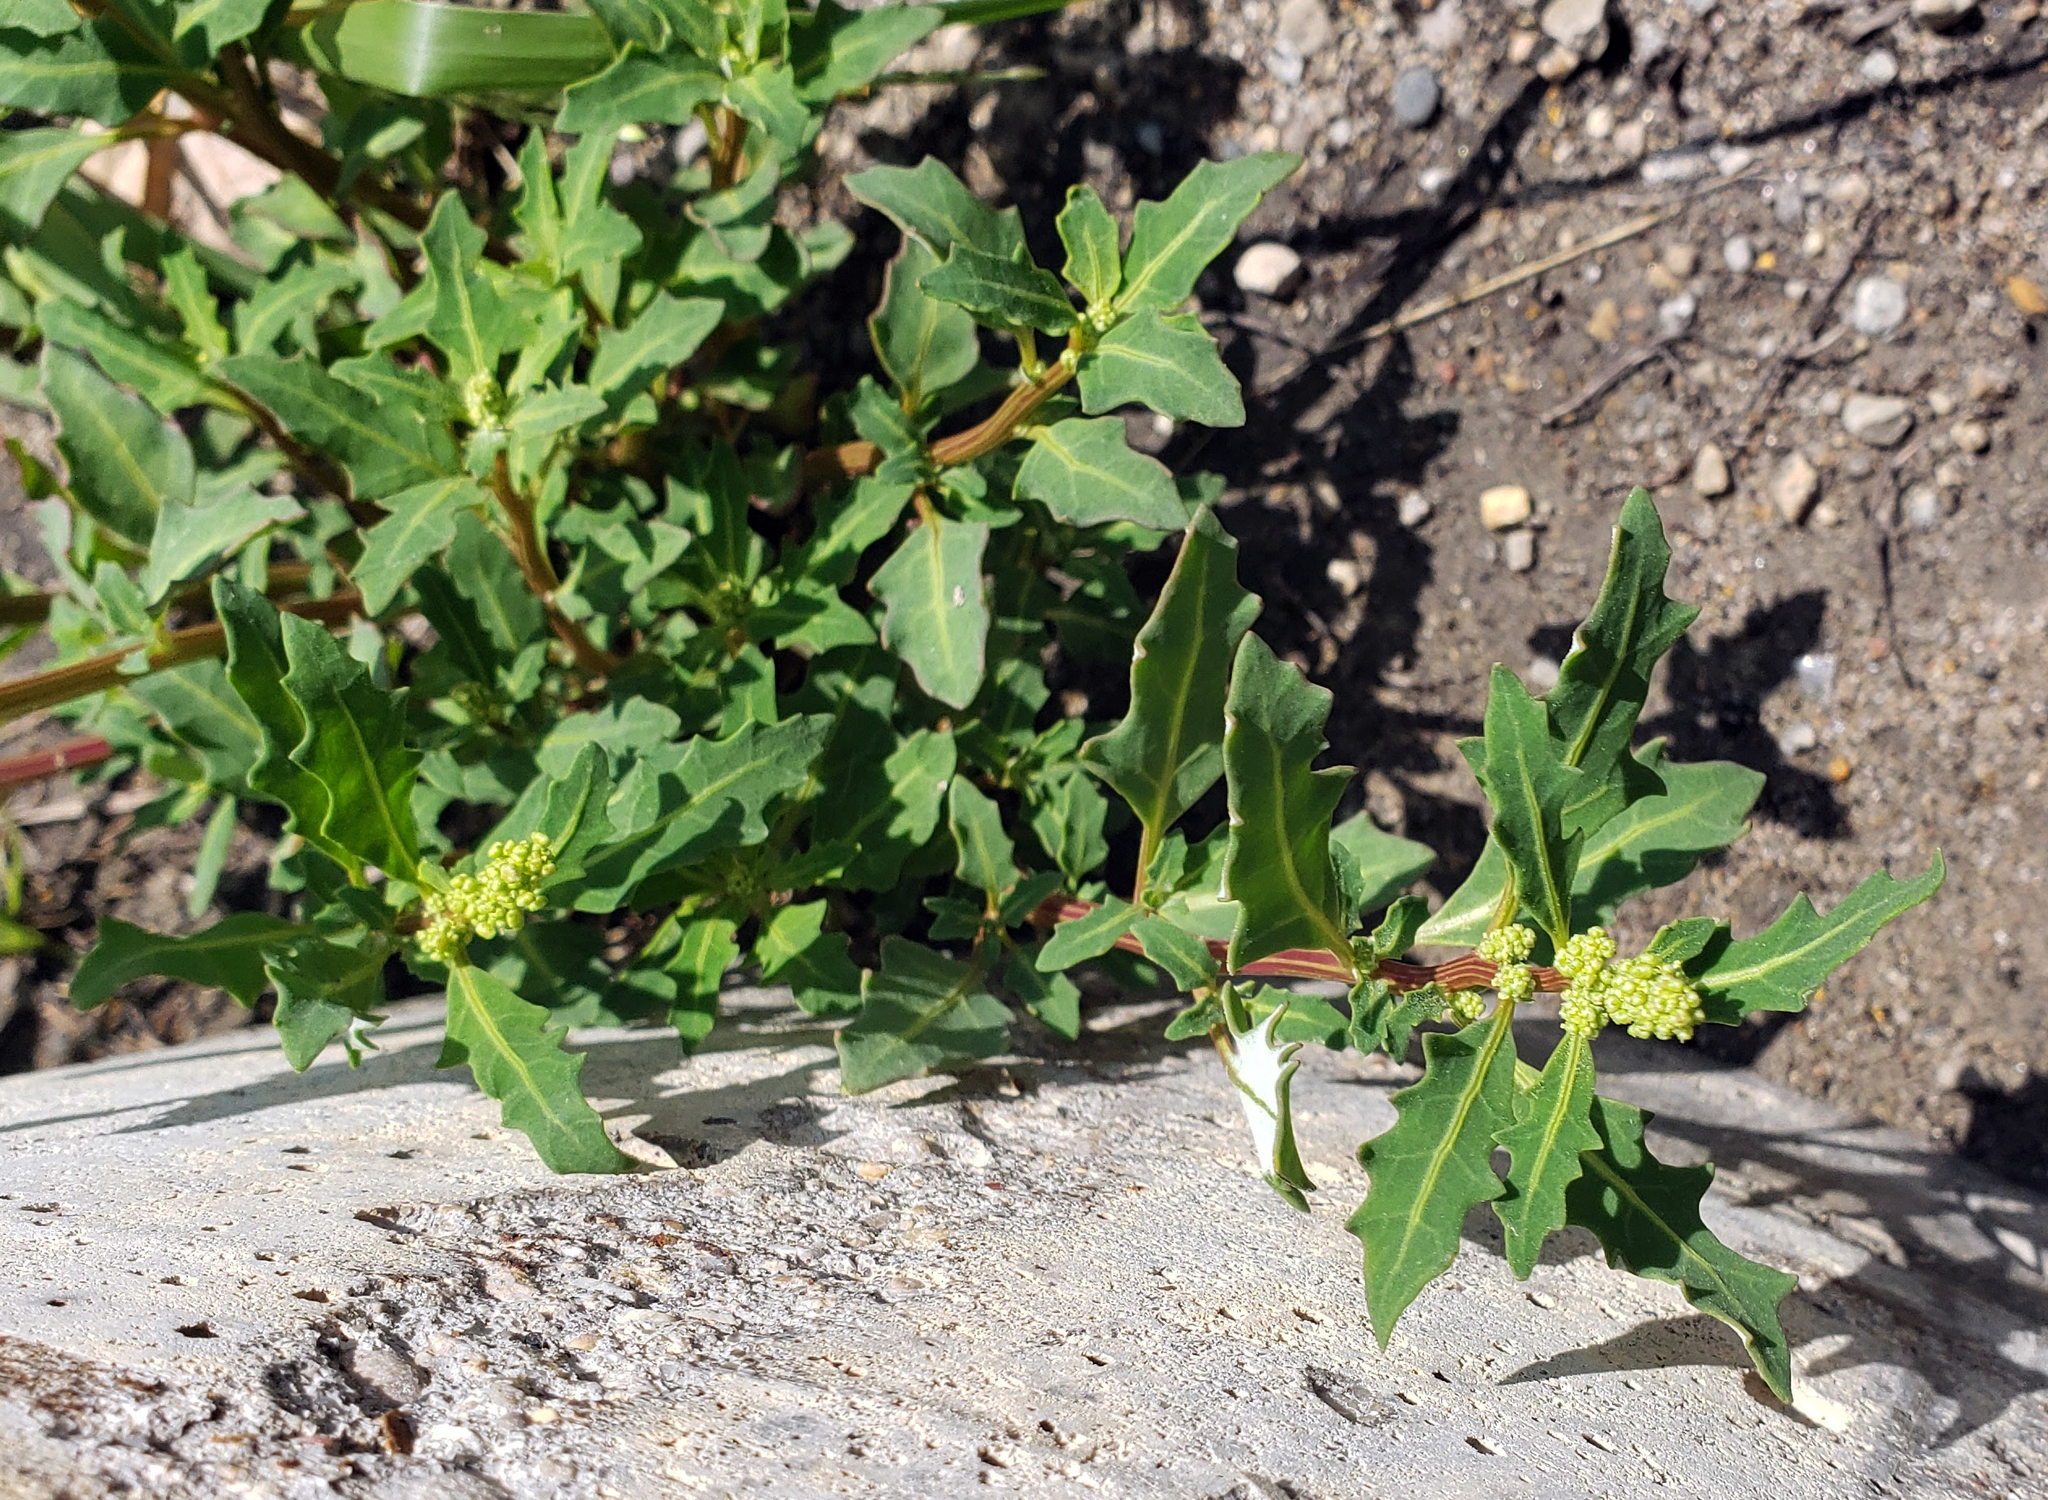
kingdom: Plantae
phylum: Tracheophyta
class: Magnoliopsida
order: Caryophyllales
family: Amaranthaceae
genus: Oxybasis
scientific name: Oxybasis glauca
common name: Glaucous goosefoot
